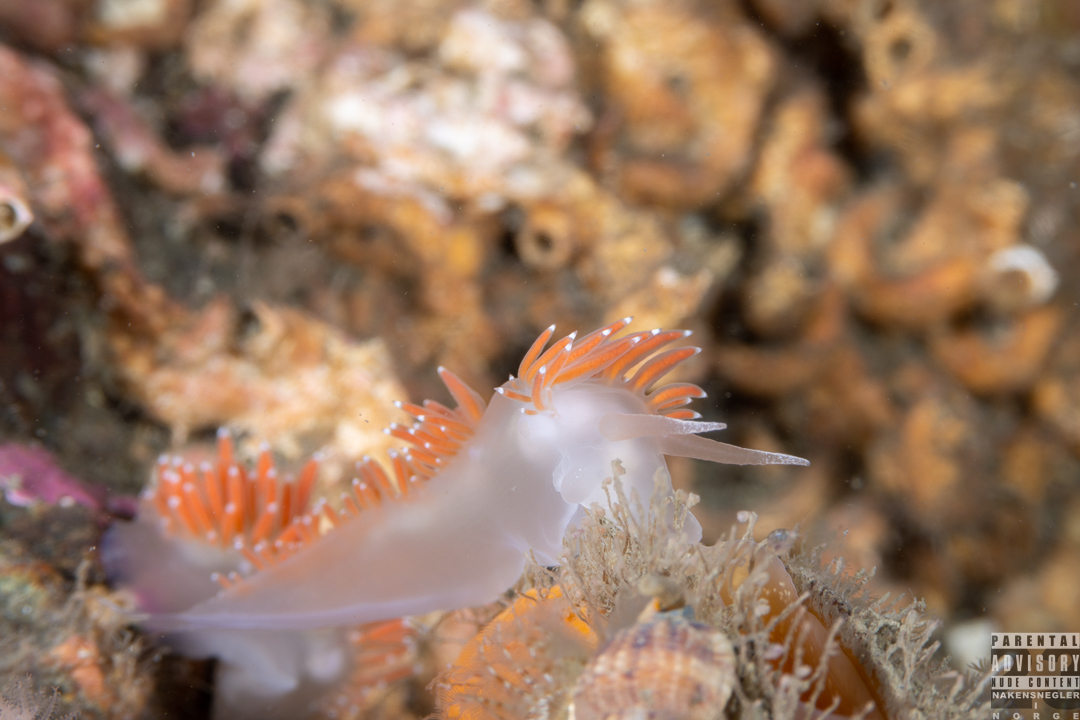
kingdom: Animalia
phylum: Mollusca
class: Gastropoda
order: Nudibranchia
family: Coryphellidae
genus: Coryphella
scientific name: Coryphella verrucosa
